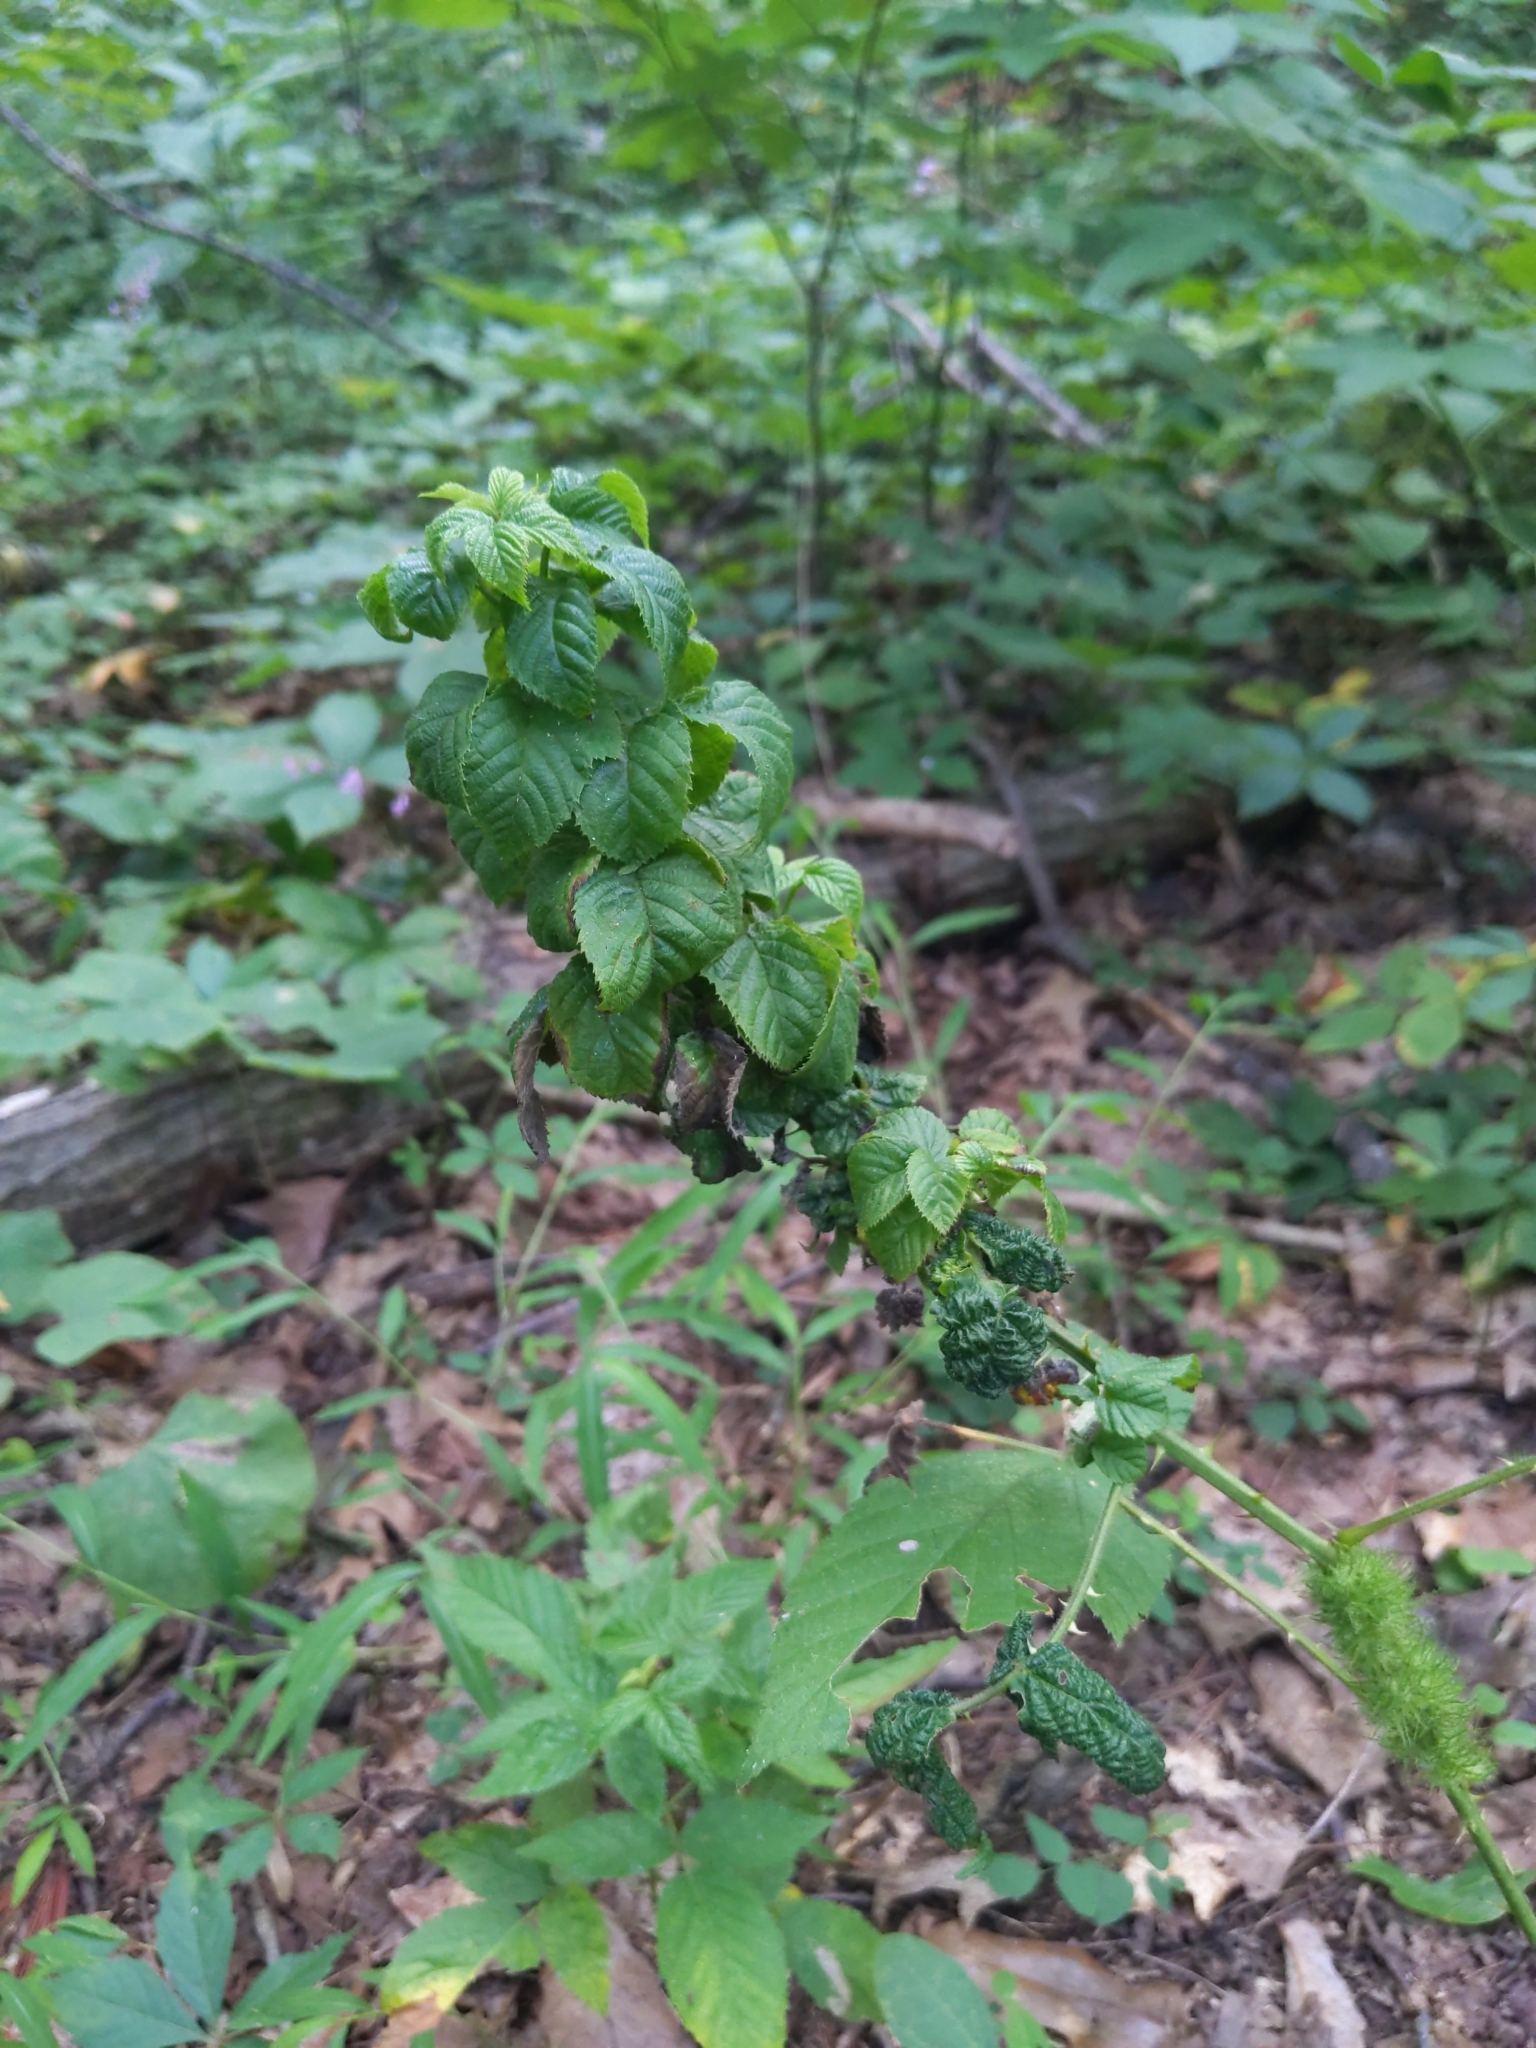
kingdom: Animalia
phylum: Arthropoda
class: Insecta
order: Hymenoptera
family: Cynipidae
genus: Diastrophus
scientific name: Diastrophus
